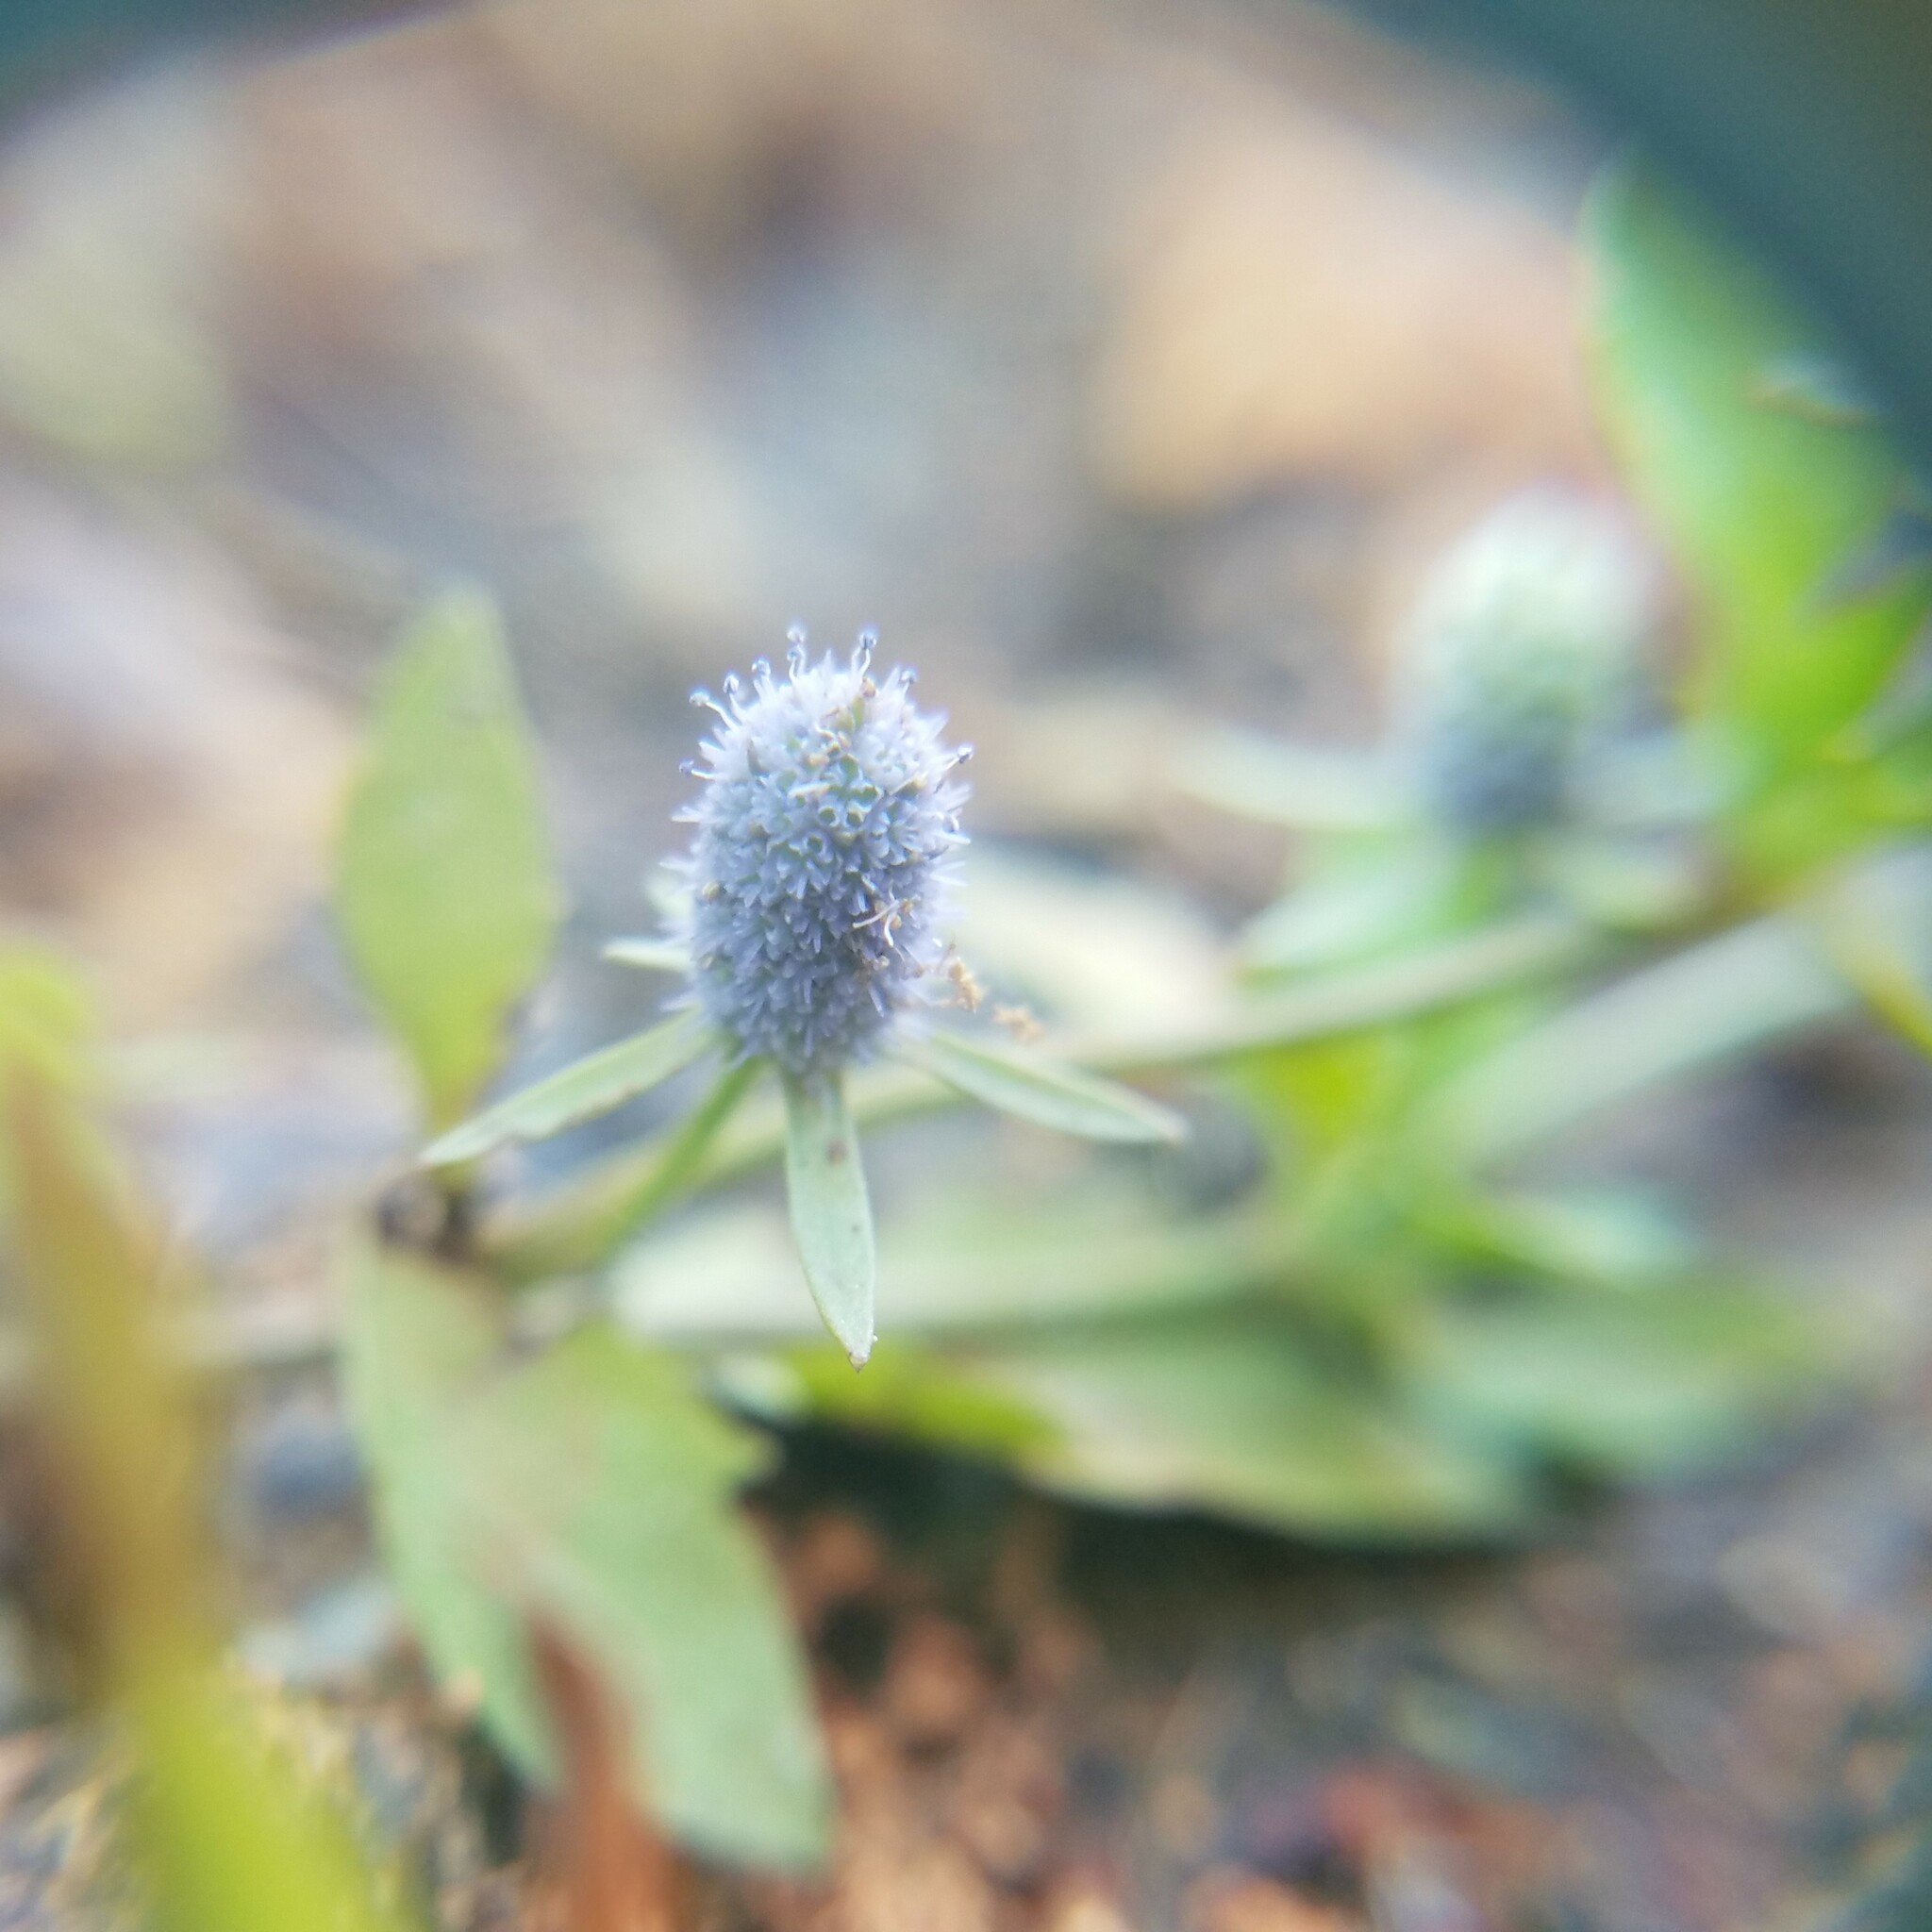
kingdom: Plantae
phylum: Tracheophyta
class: Magnoliopsida
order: Apiales
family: Apiaceae
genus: Eryngium
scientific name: Eryngium prostratum
